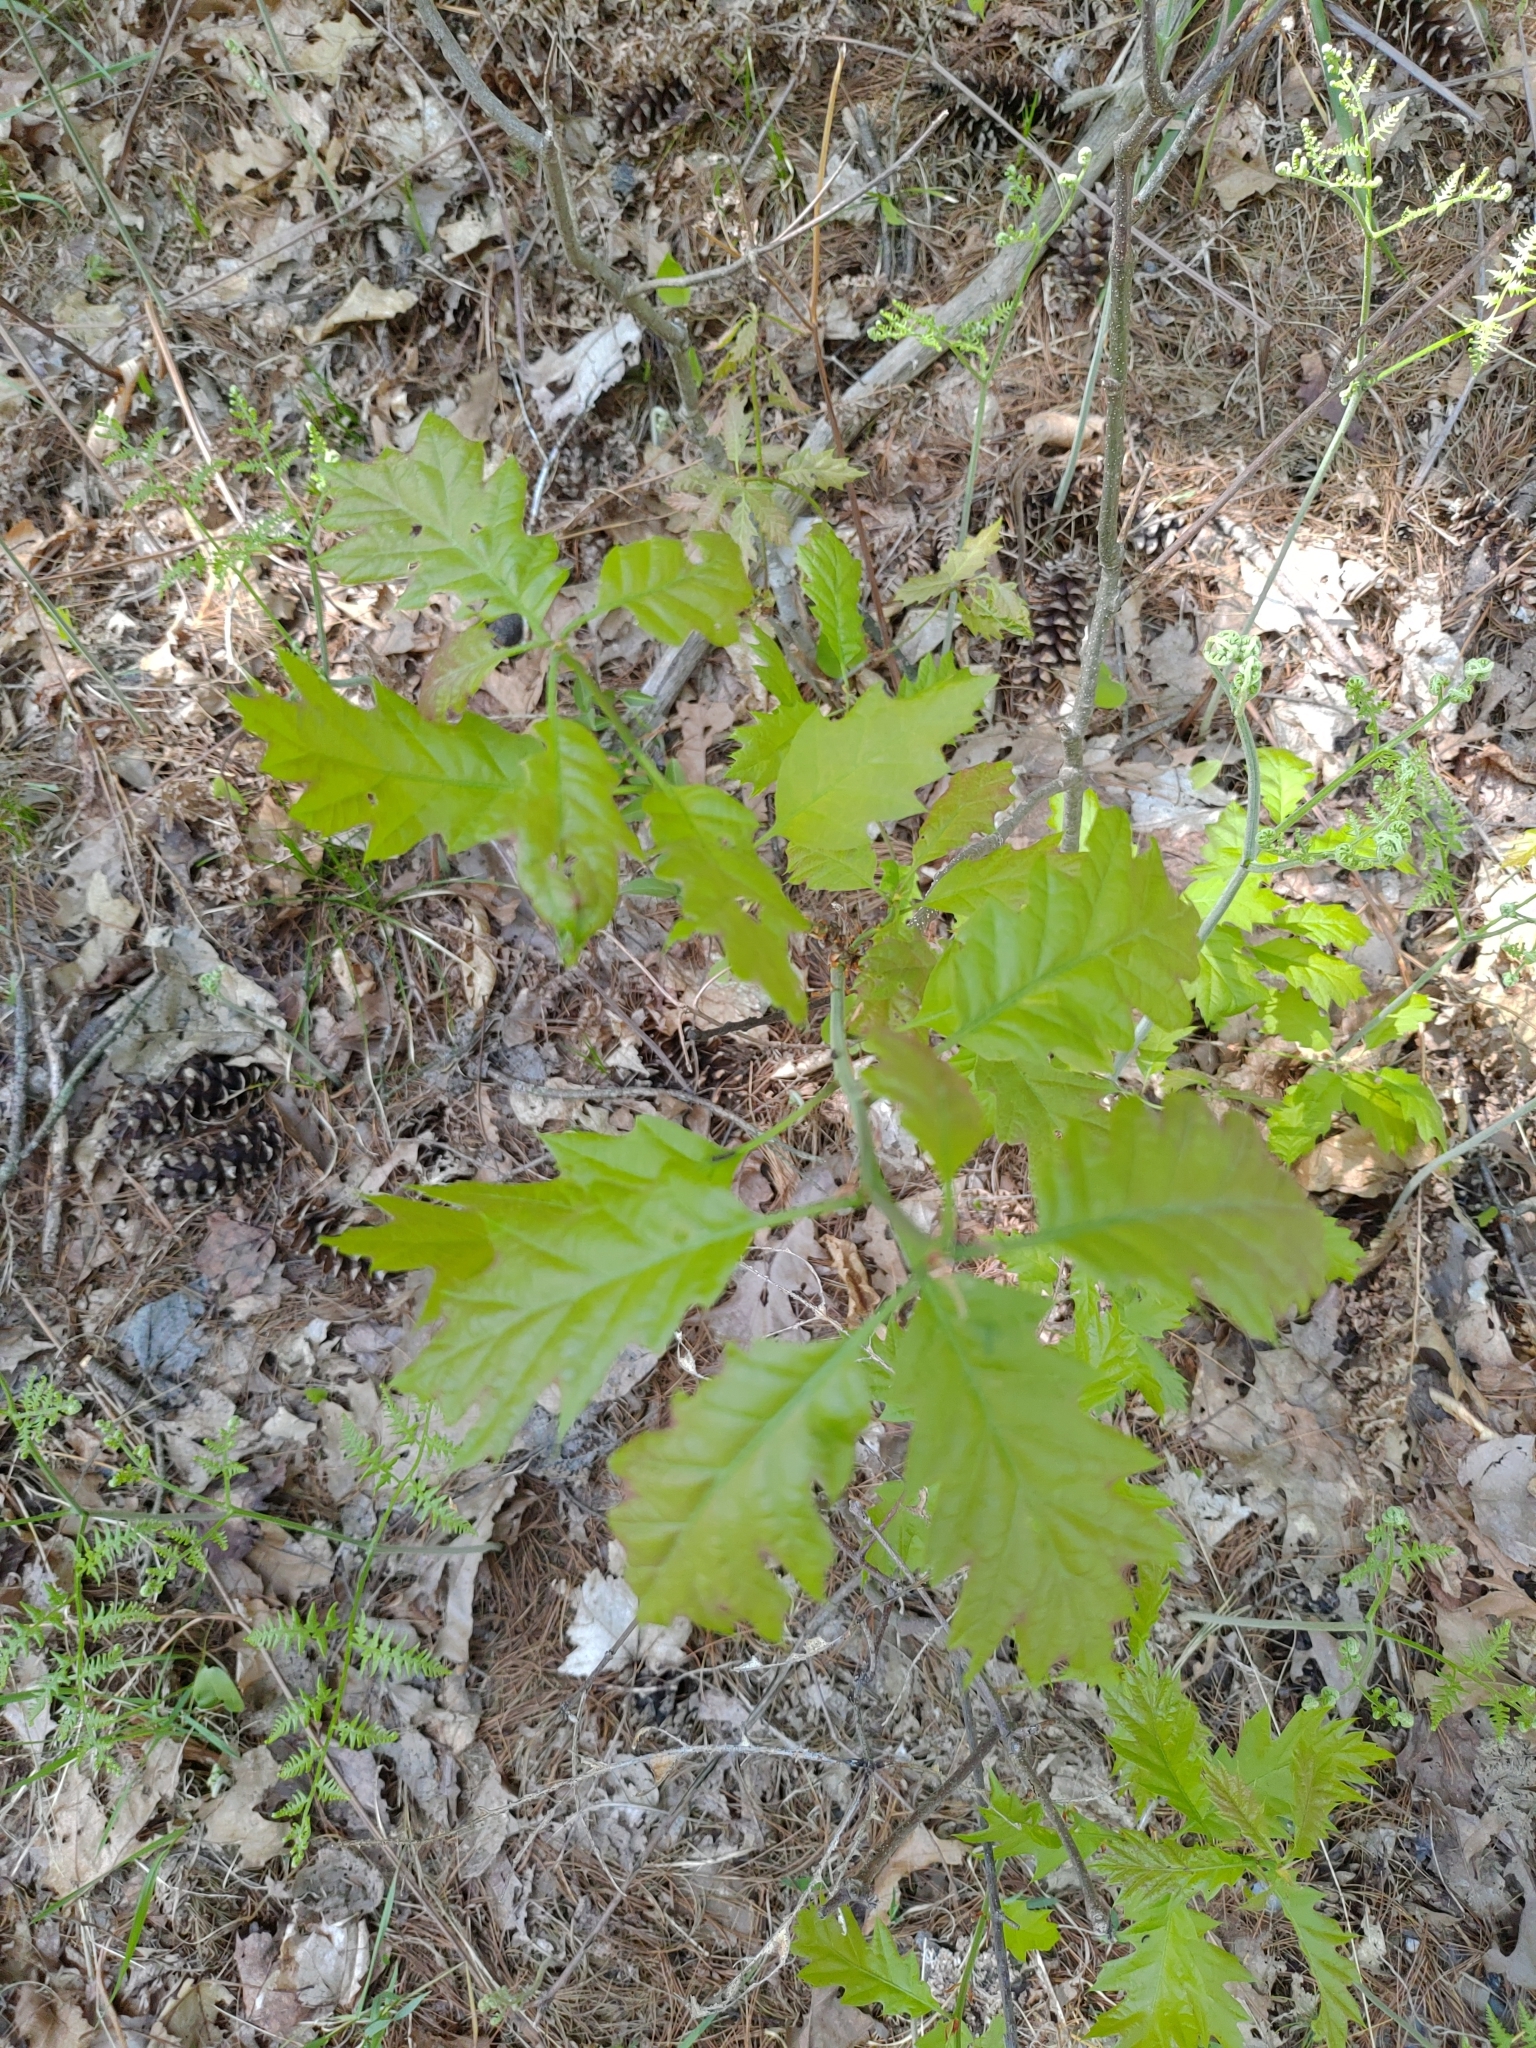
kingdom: Plantae
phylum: Tracheophyta
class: Magnoliopsida
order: Fagales
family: Fagaceae
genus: Quercus
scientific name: Quercus rubra
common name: Red oak
